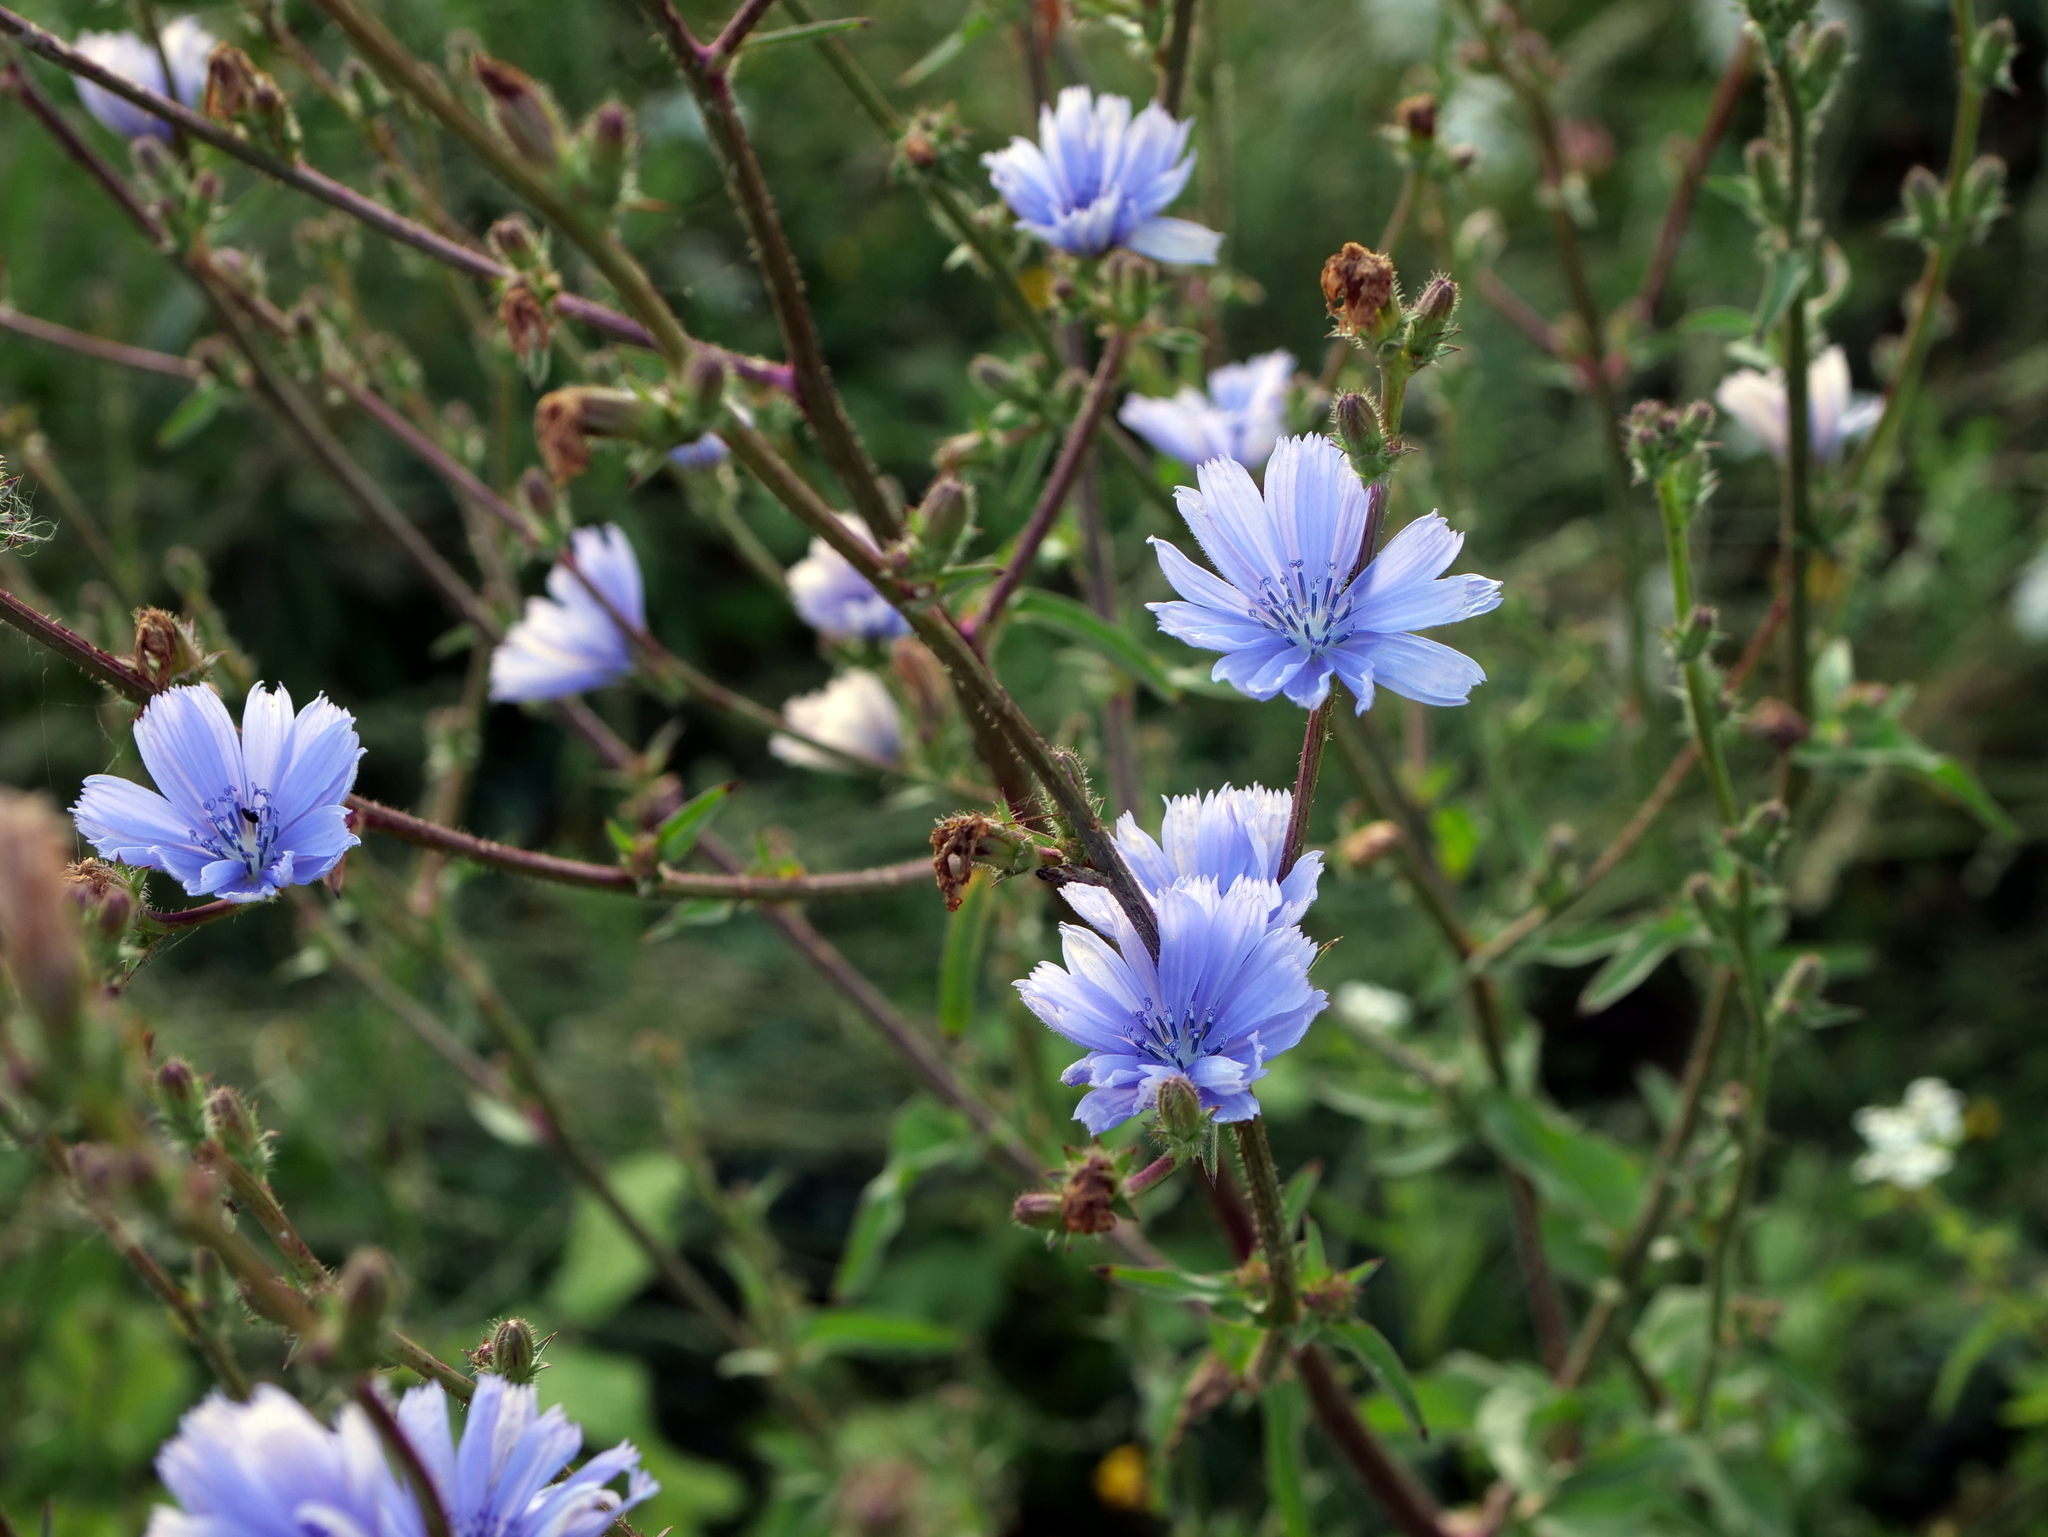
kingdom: Plantae
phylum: Tracheophyta
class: Magnoliopsida
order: Asterales
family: Asteraceae
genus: Cichorium
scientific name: Cichorium intybus
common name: Chicory
